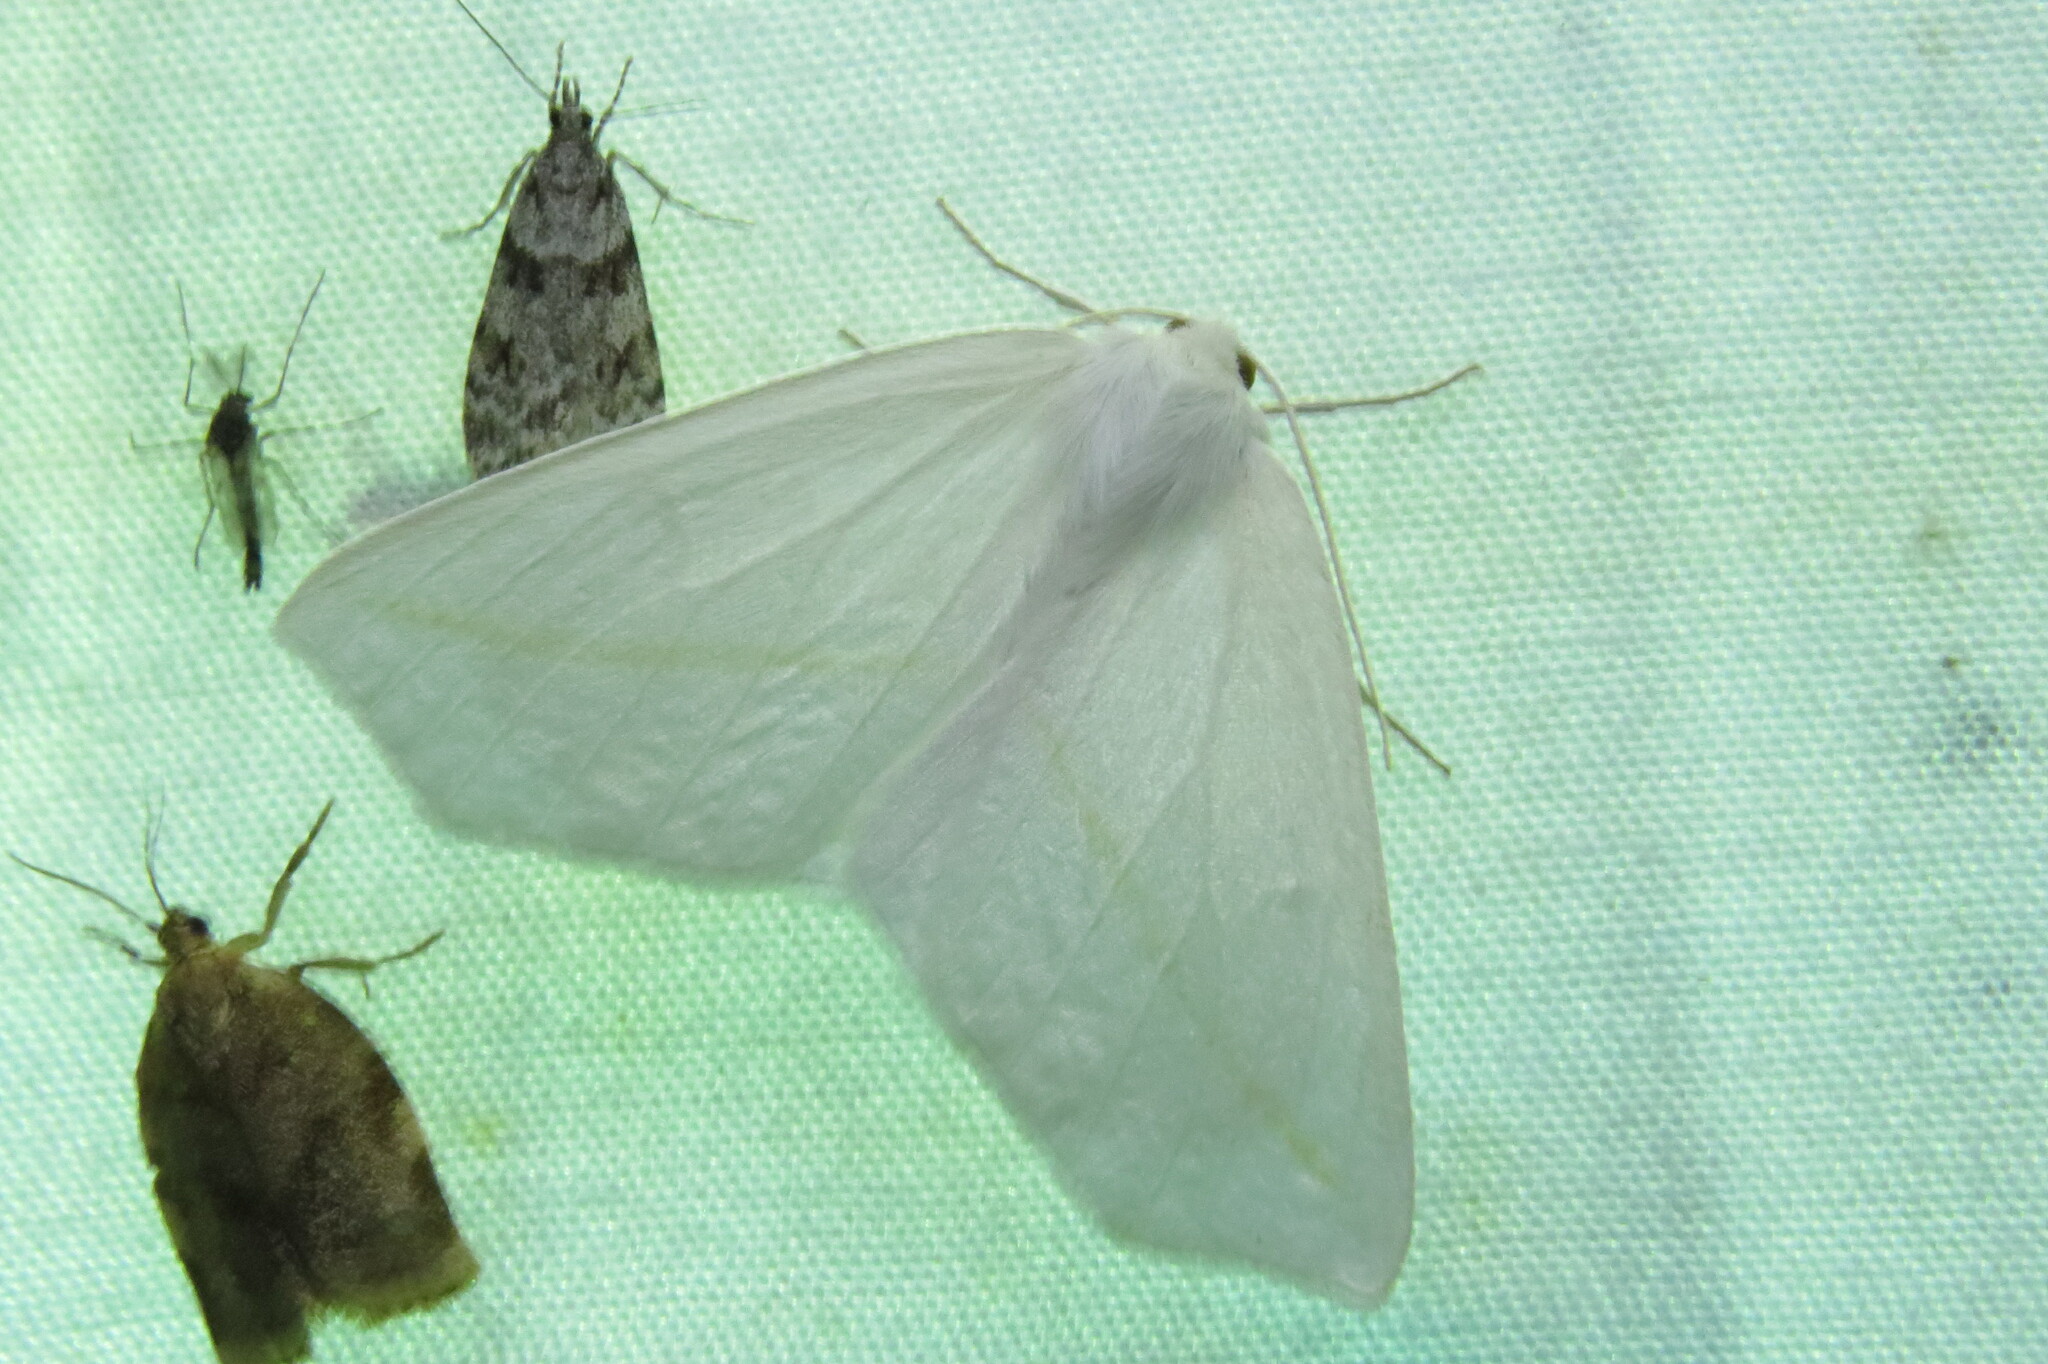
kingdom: Animalia
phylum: Arthropoda
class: Insecta
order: Lepidoptera
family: Geometridae
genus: Tetracis
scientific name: Tetracis cachexiata
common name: White slant-line
